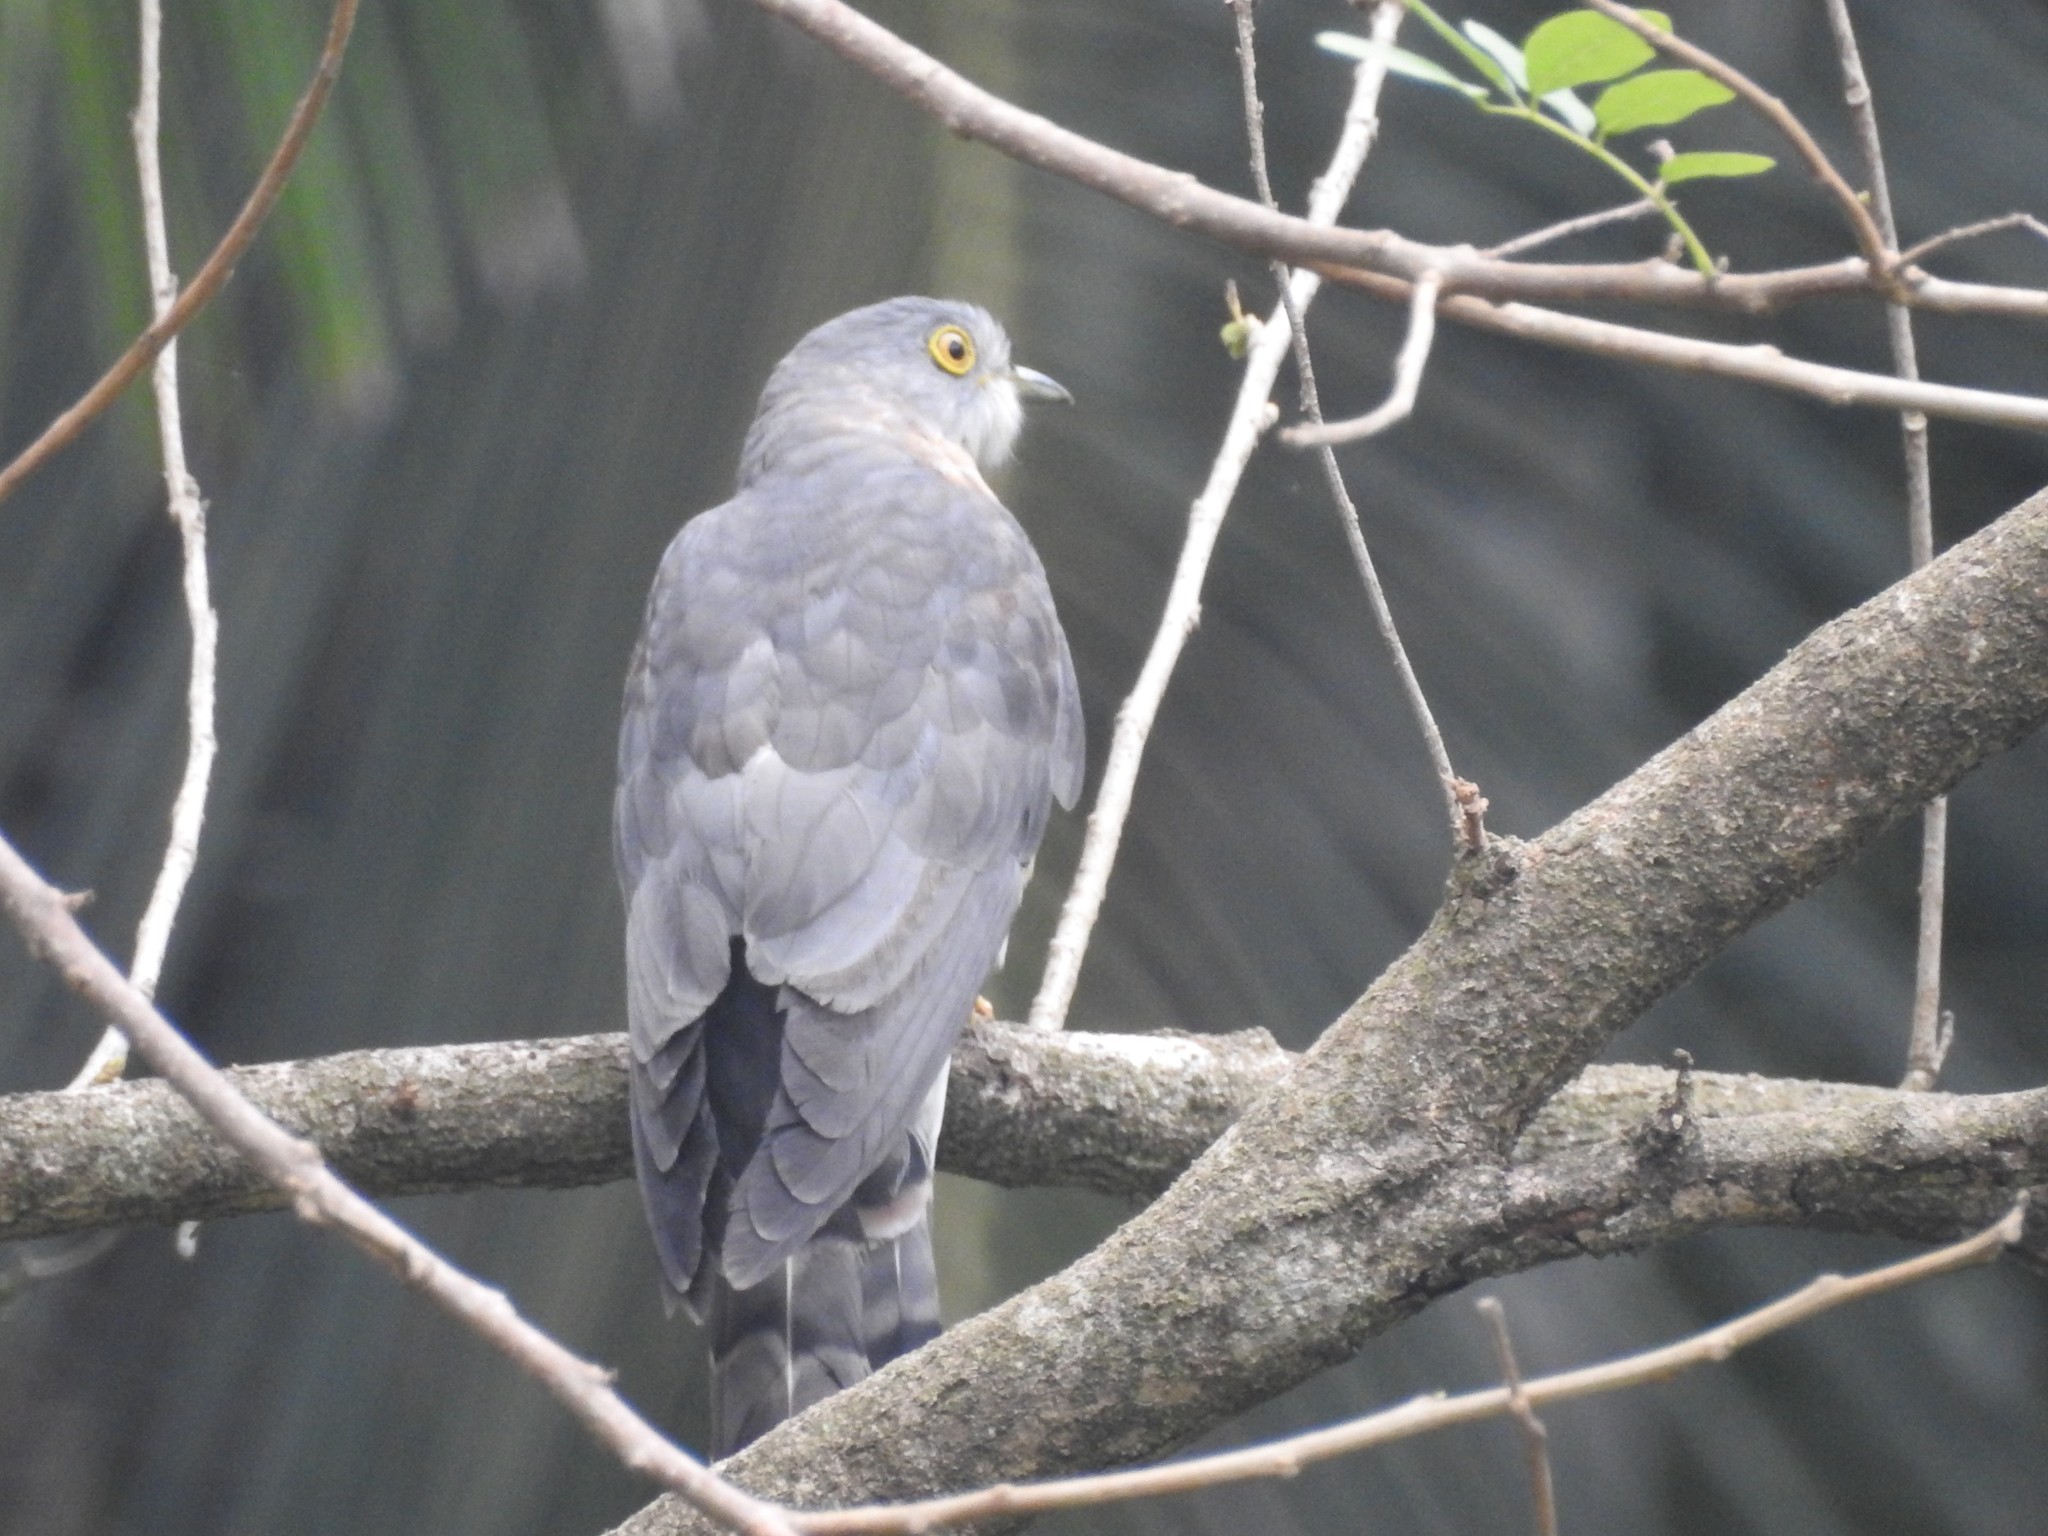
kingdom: Animalia
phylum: Chordata
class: Aves
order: Cuculiformes
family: Cuculidae
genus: Cuculus
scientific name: Cuculus varius
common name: Common hawk cuckoo
